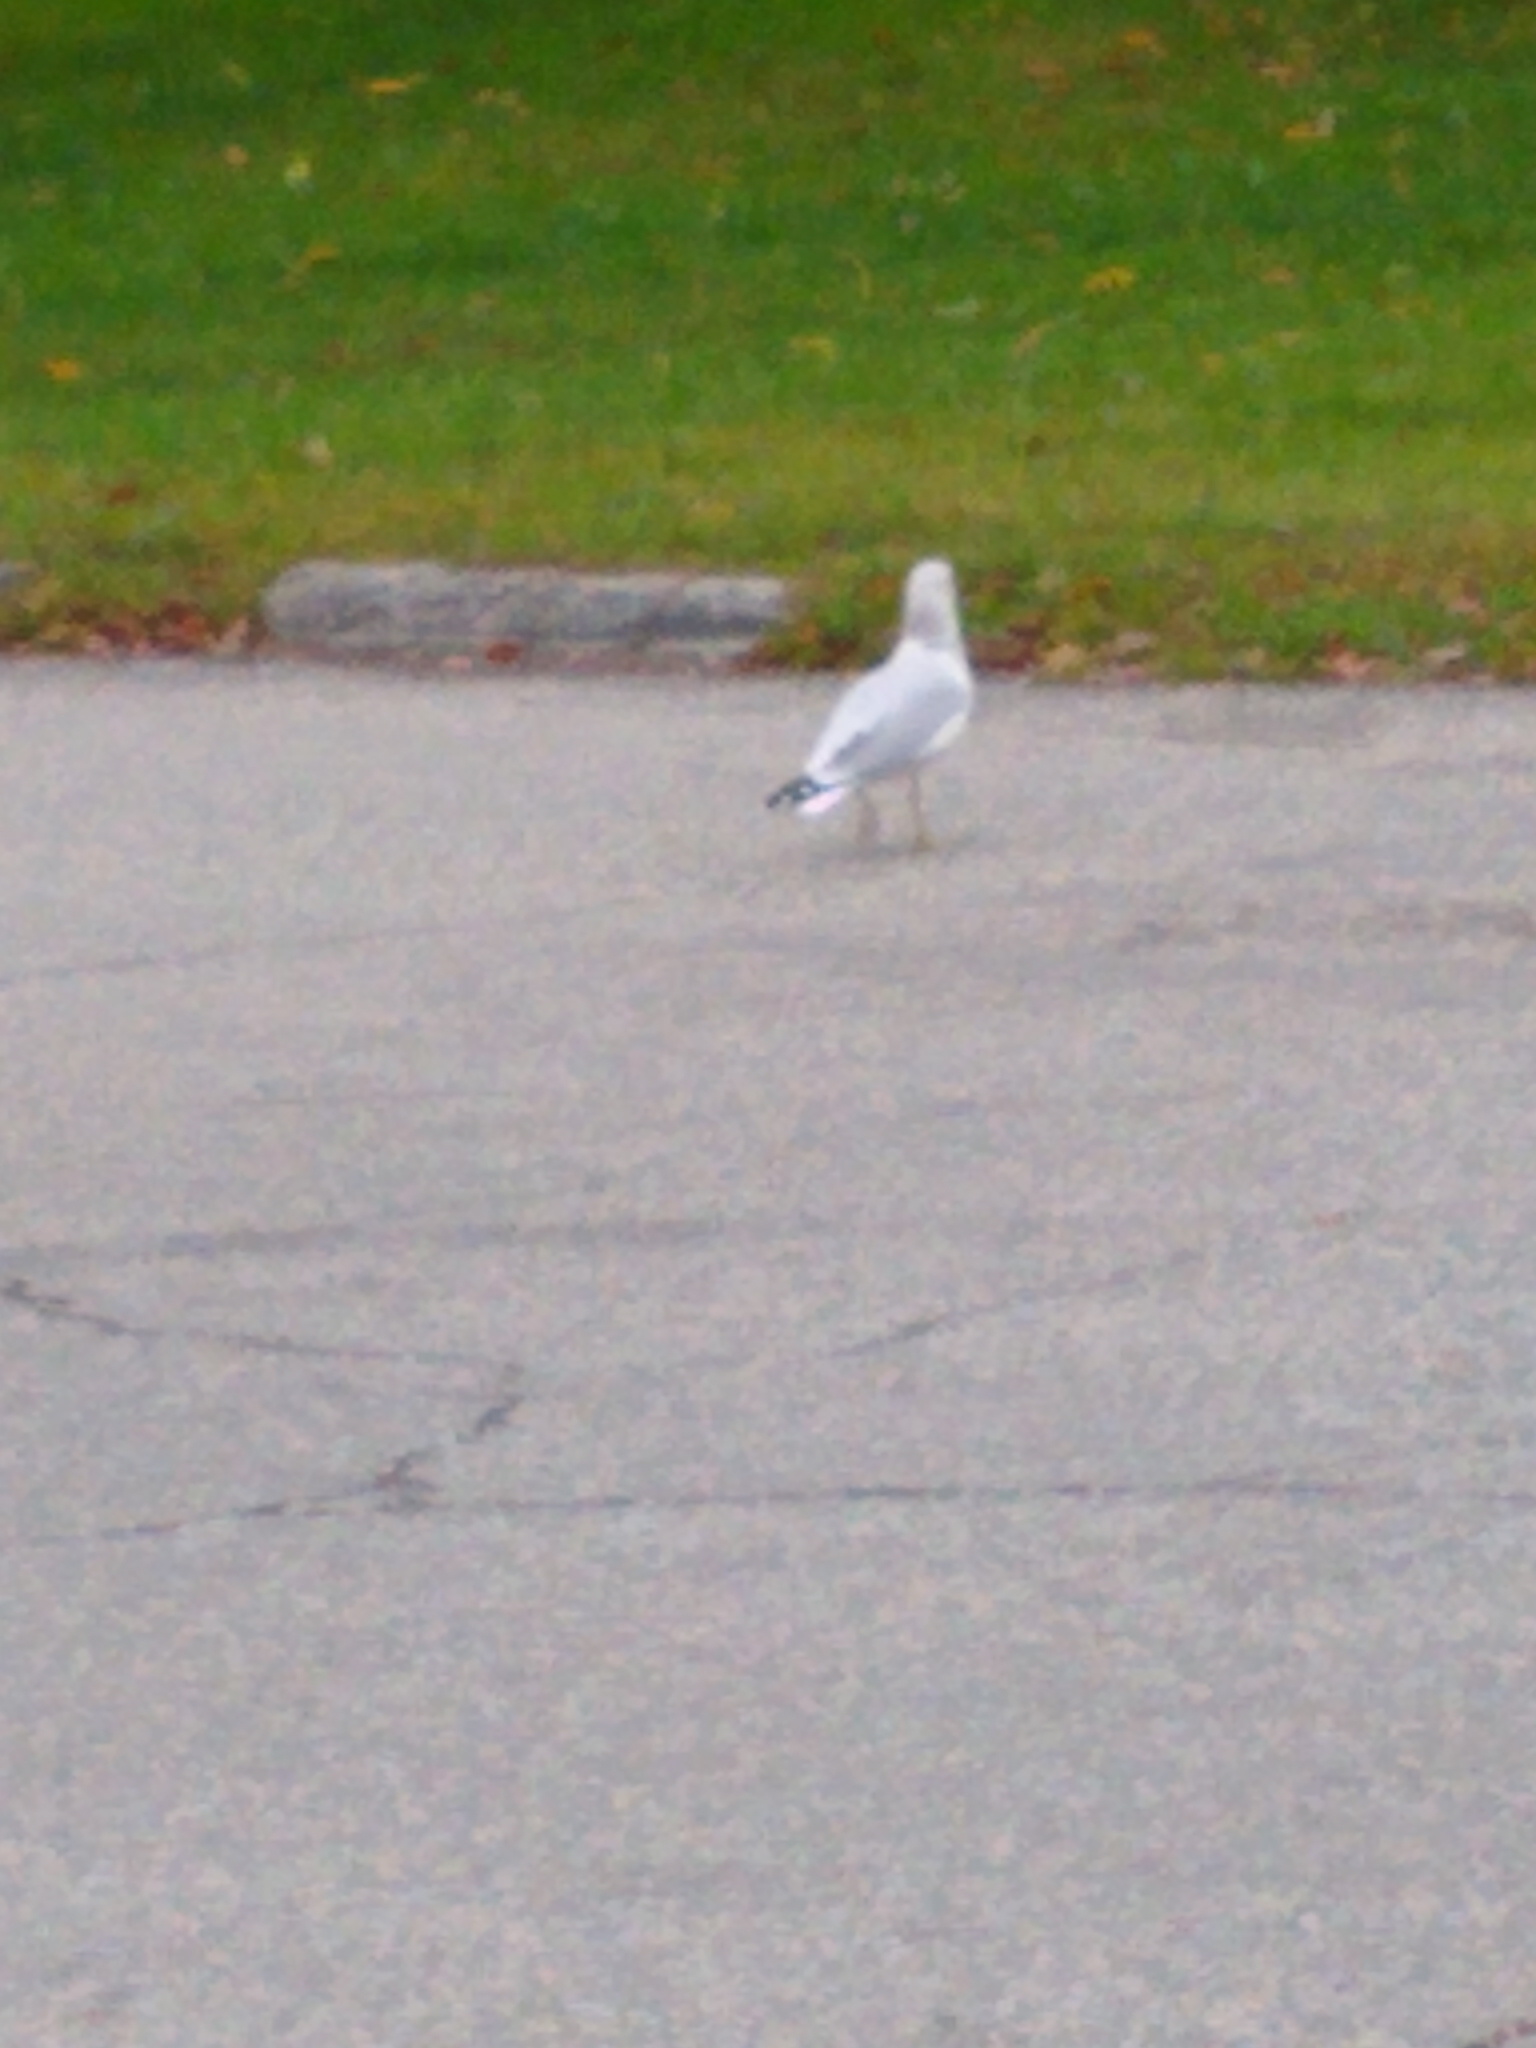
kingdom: Animalia
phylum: Chordata
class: Aves
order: Charadriiformes
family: Laridae
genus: Larus
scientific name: Larus delawarensis
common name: Ring-billed gull
